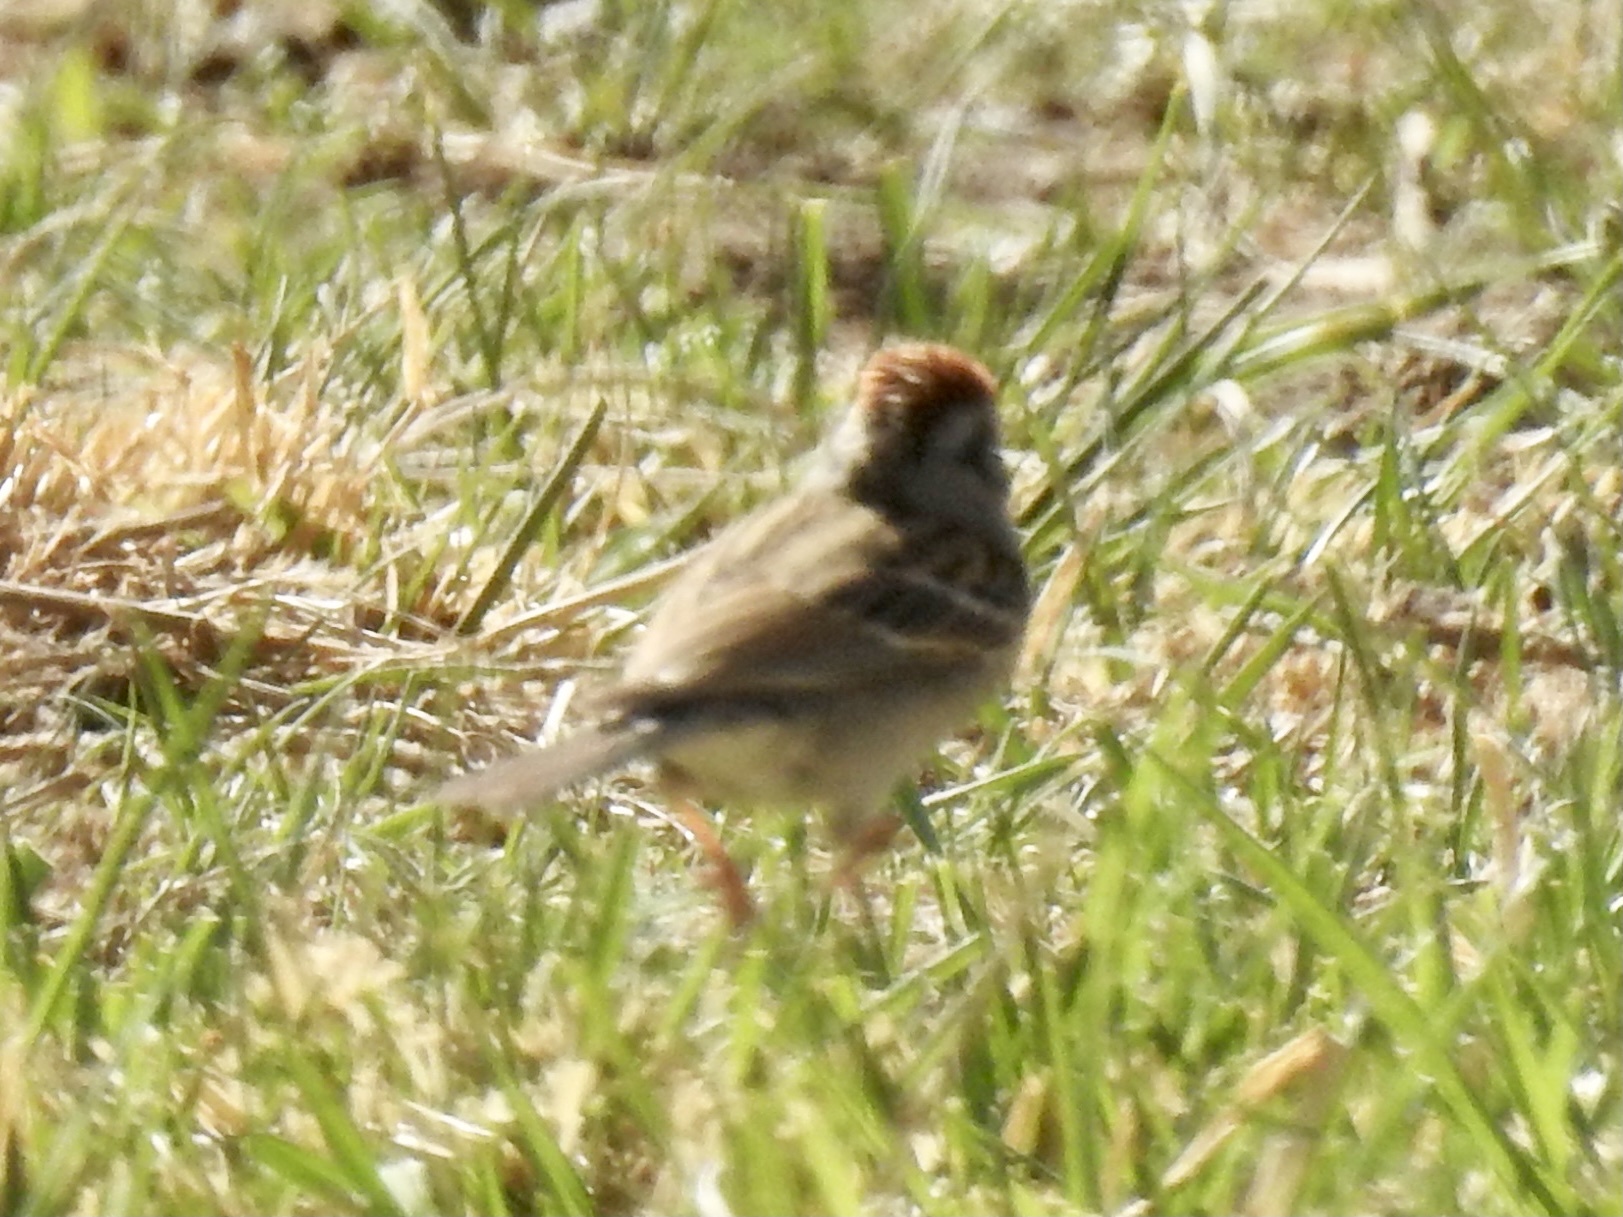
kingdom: Animalia
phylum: Chordata
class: Aves
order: Passeriformes
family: Passerellidae
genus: Spizella
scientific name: Spizella passerina
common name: Chipping sparrow
